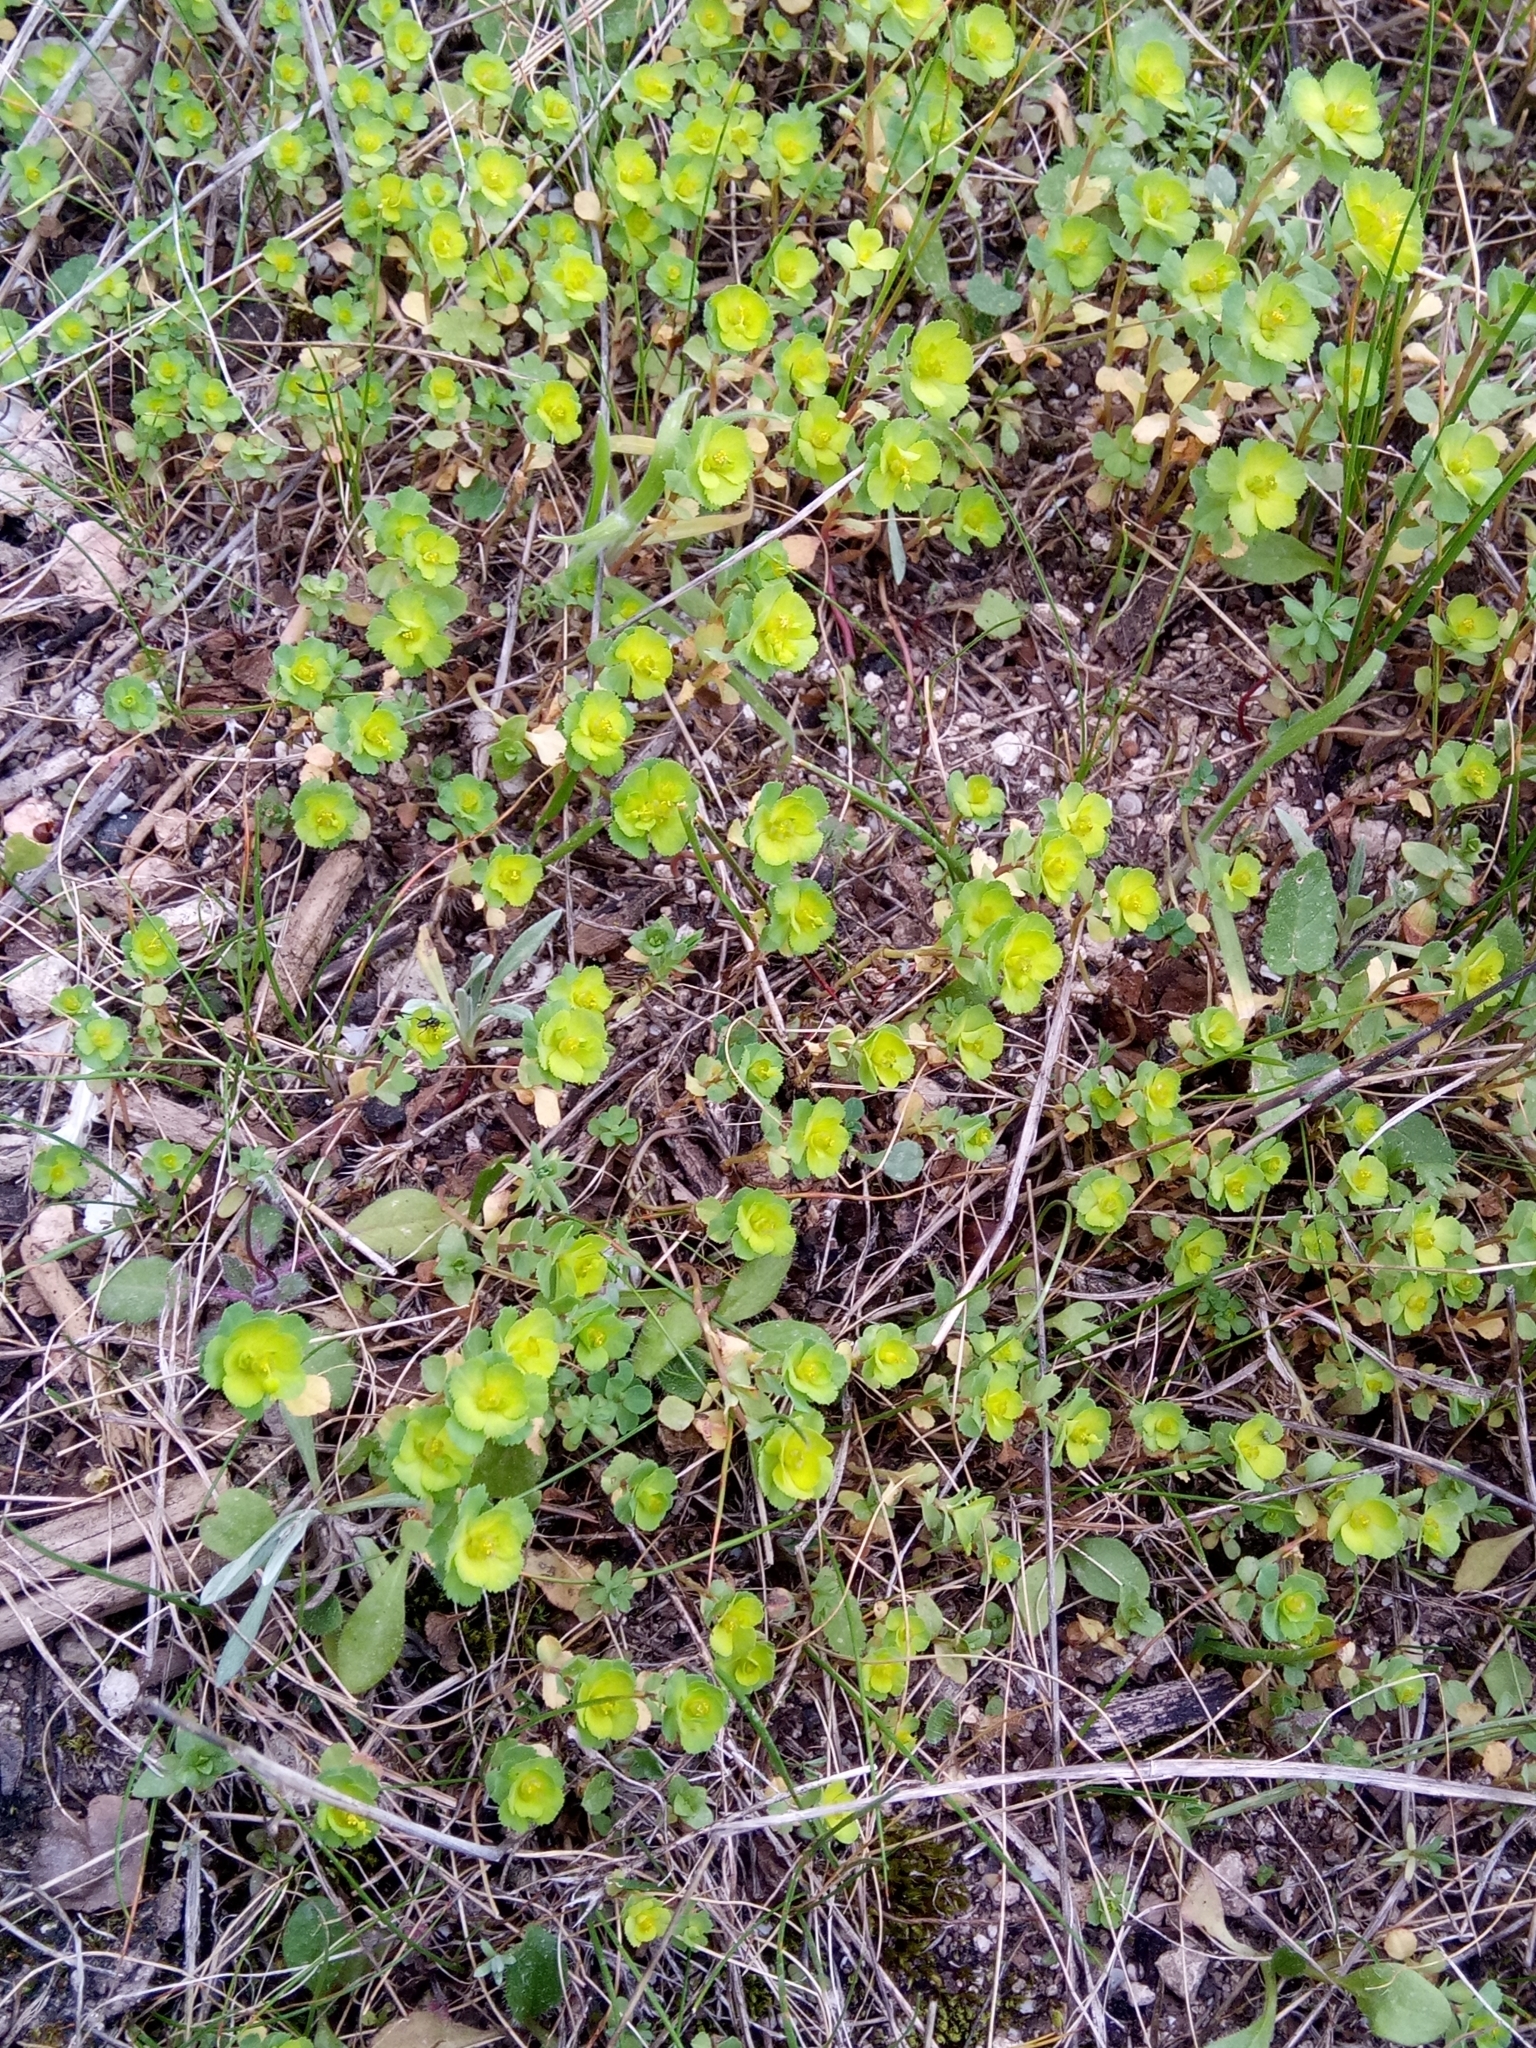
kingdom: Plantae
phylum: Tracheophyta
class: Magnoliopsida
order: Malpighiales
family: Euphorbiaceae
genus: Euphorbia
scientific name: Euphorbia helioscopia
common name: Sun spurge
